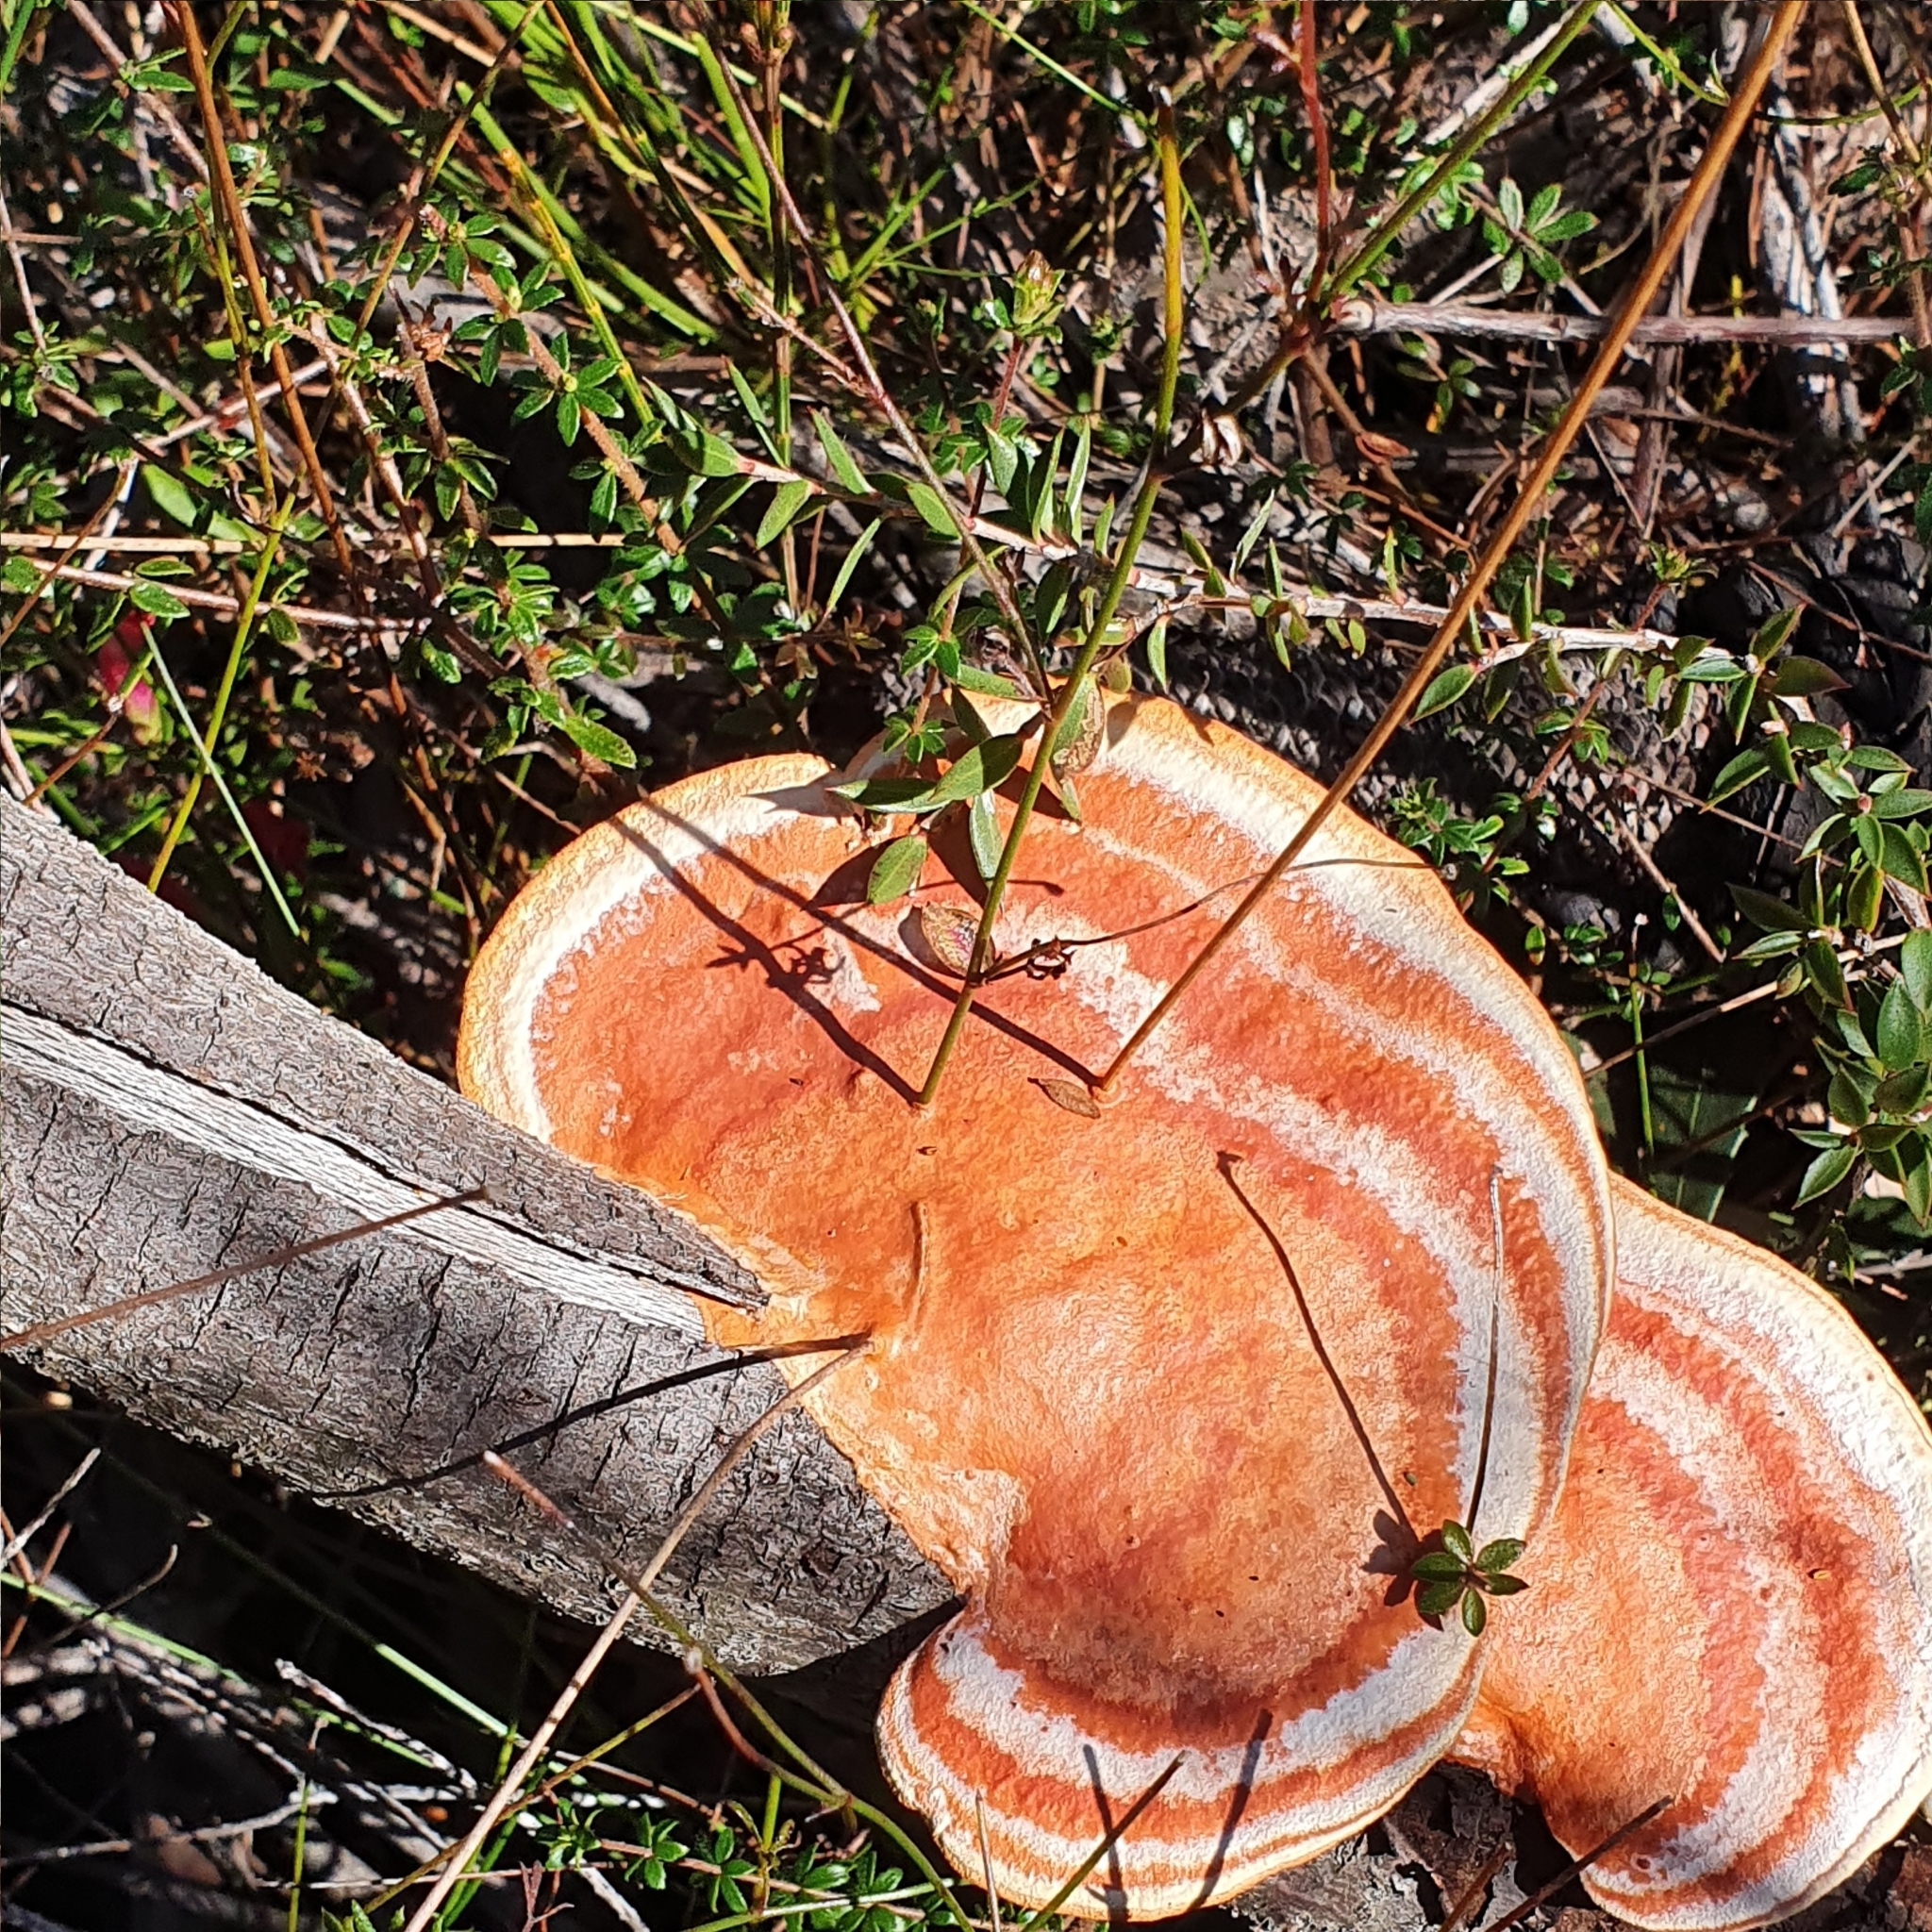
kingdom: Fungi
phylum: Basidiomycota
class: Agaricomycetes
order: Polyporales
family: Polyporaceae
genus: Trametes
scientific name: Trametes coccinea
